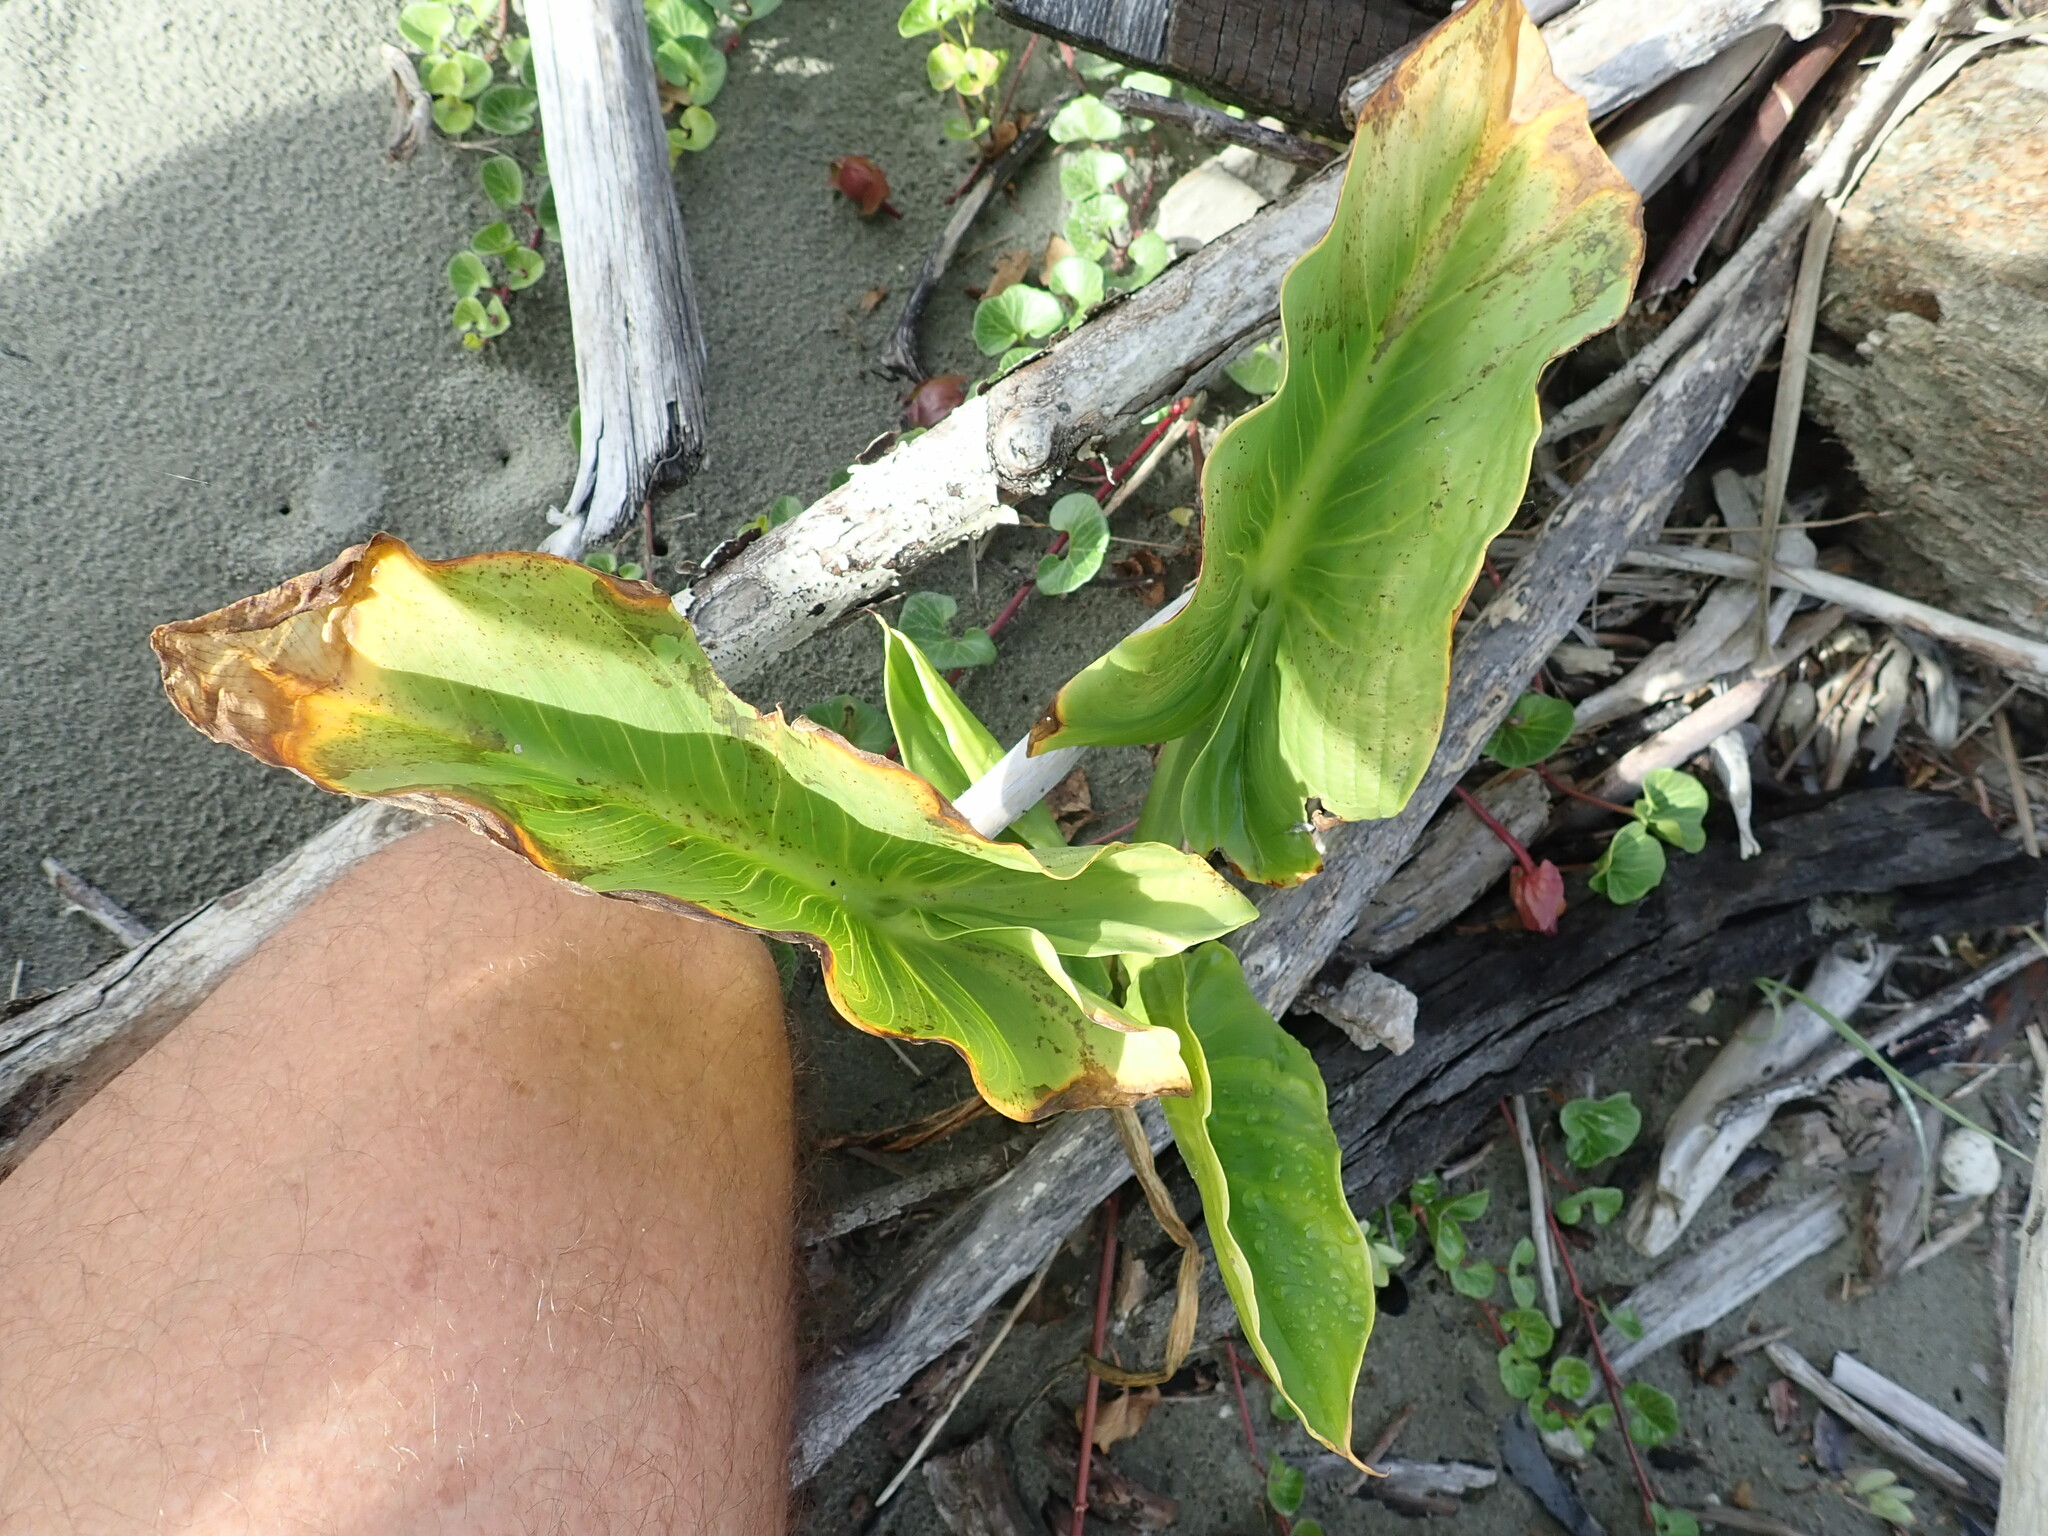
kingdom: Plantae
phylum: Tracheophyta
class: Liliopsida
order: Alismatales
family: Araceae
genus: Zantedeschia
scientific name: Zantedeschia aethiopica
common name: Altar-lily
